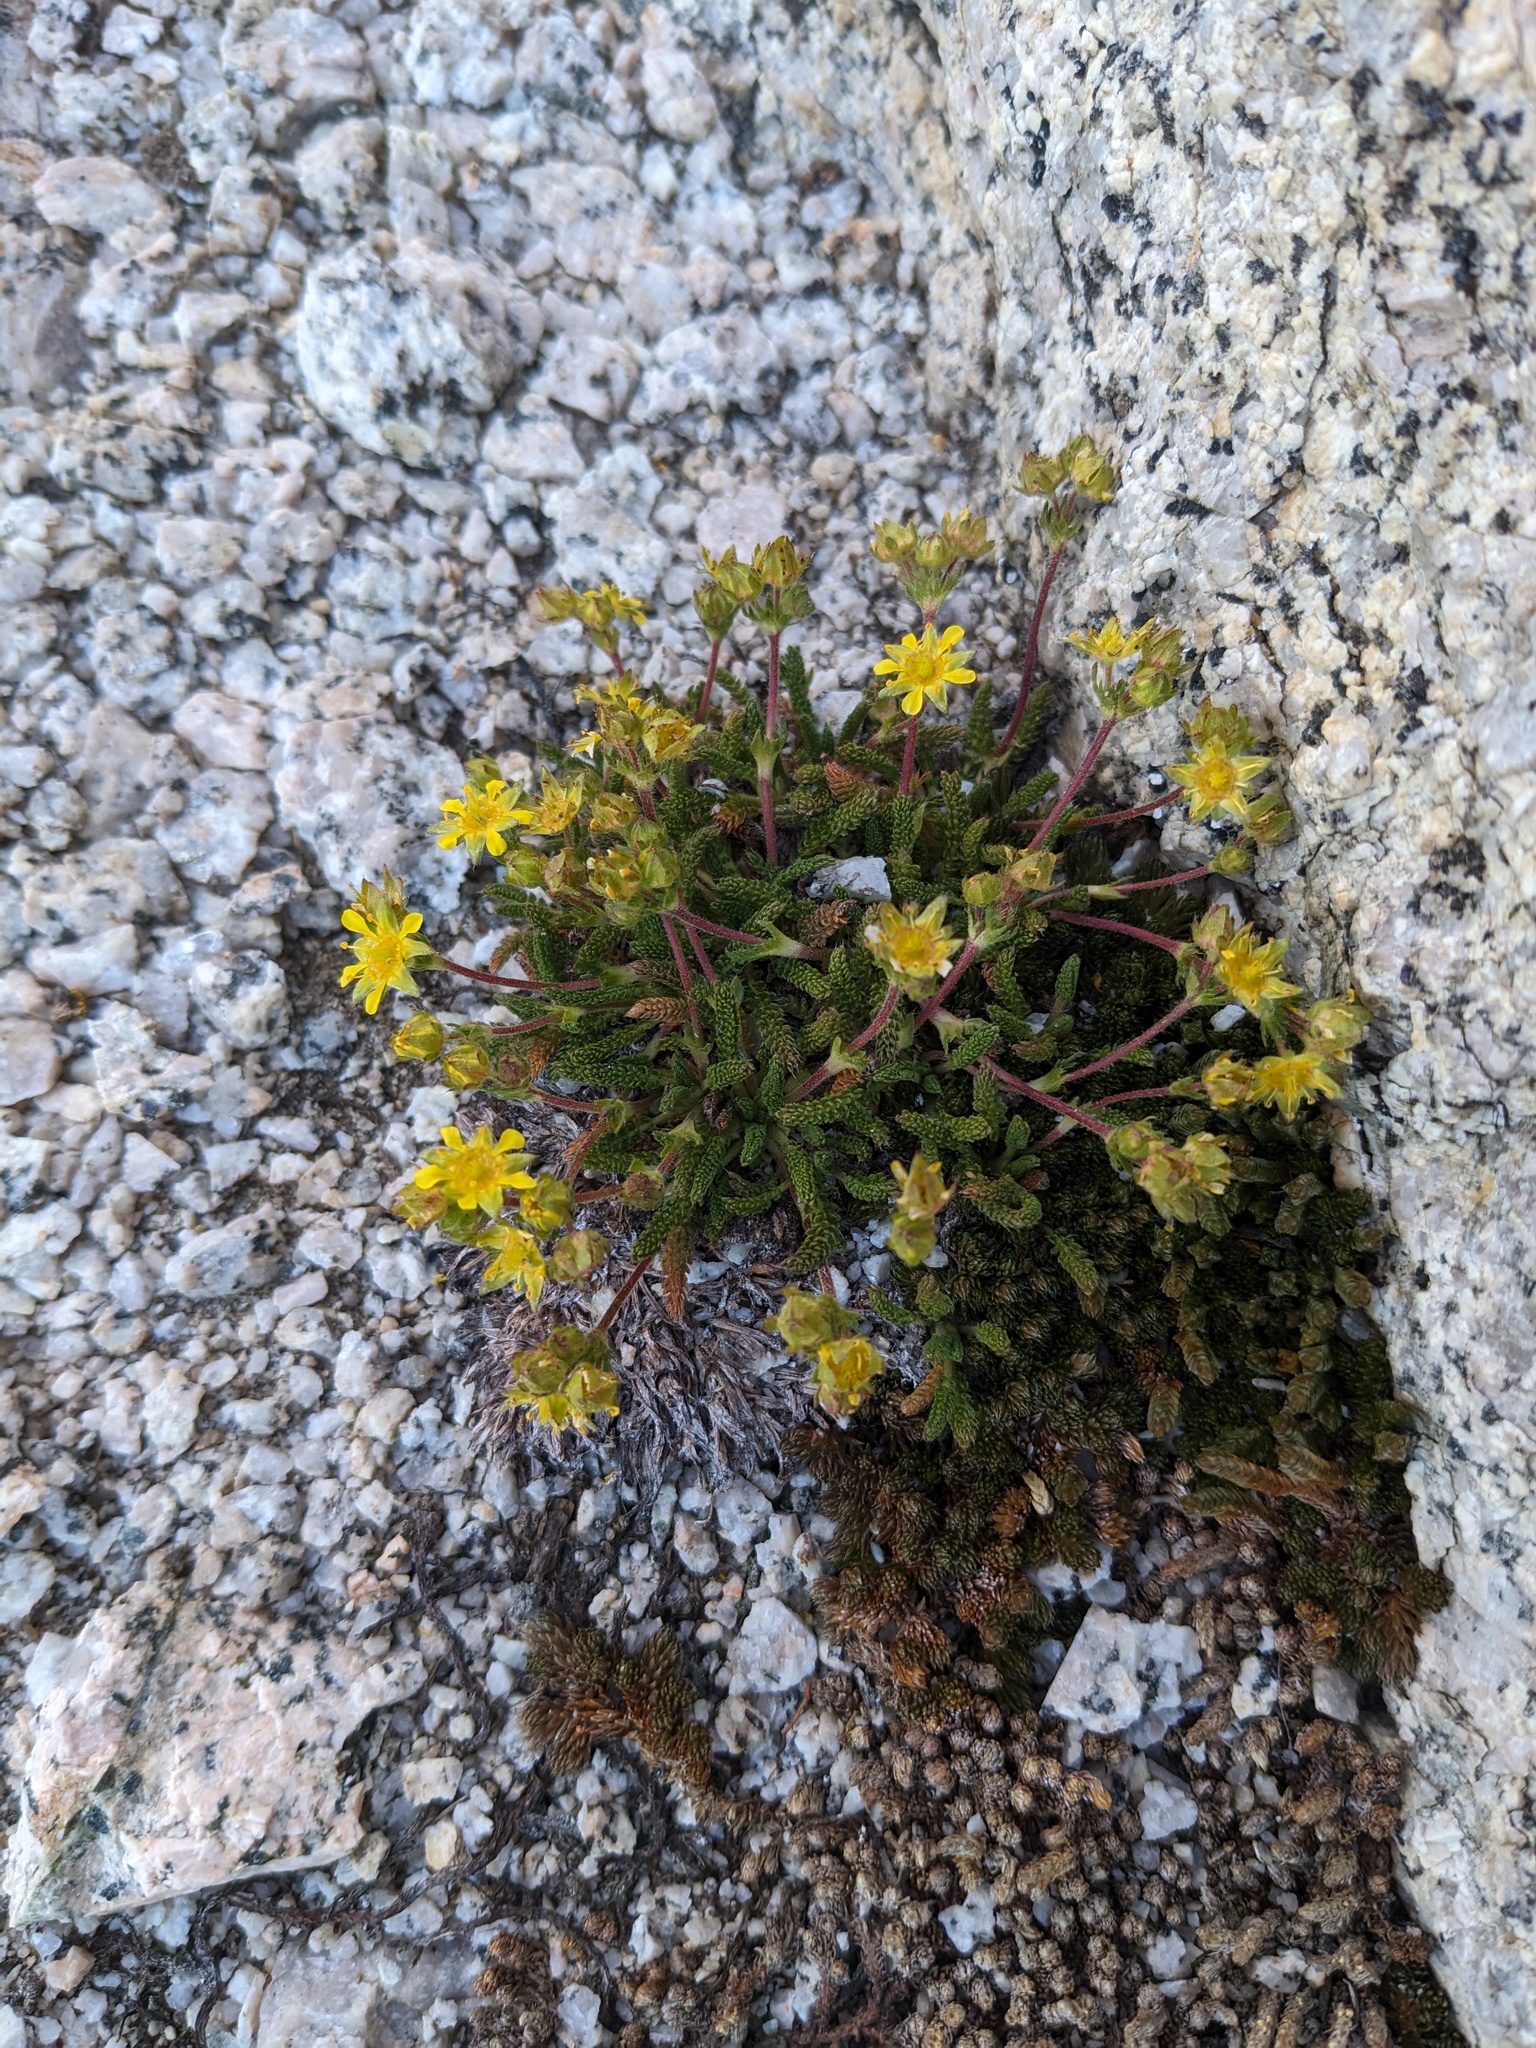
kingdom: Plantae
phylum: Tracheophyta
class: Magnoliopsida
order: Rosales
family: Rosaceae
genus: Potentilla
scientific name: Potentilla
